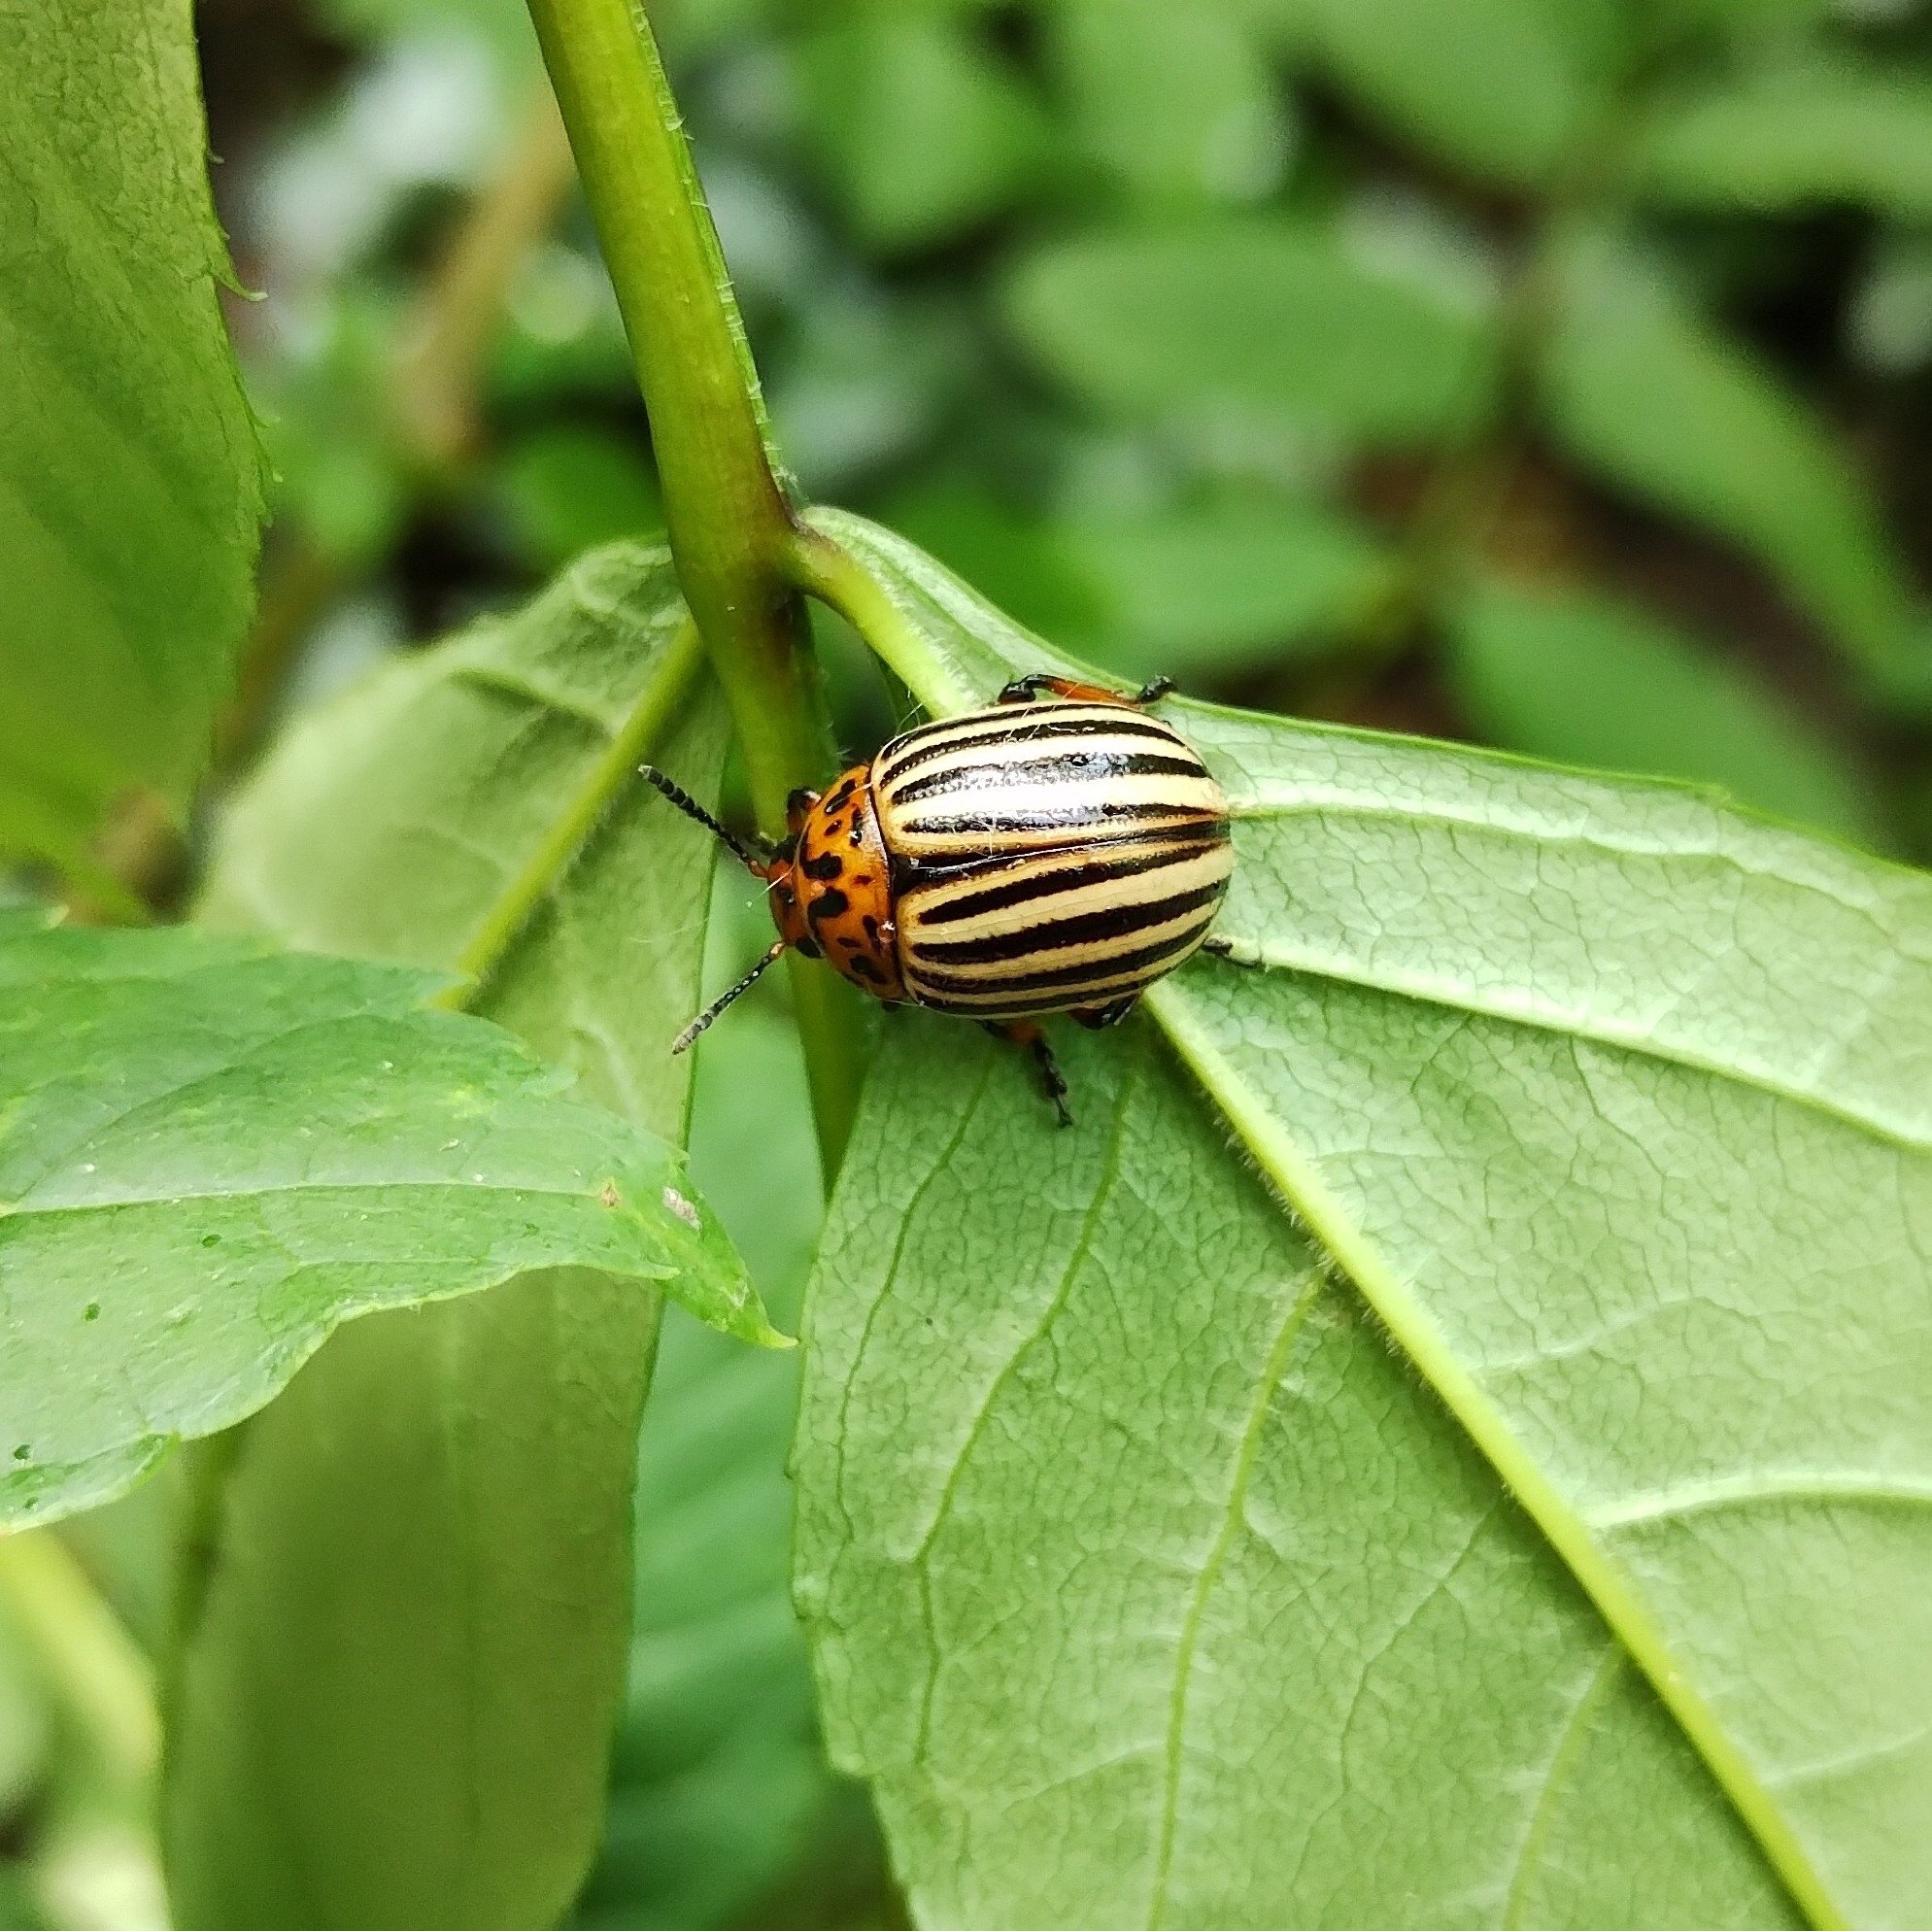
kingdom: Animalia
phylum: Arthropoda
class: Insecta
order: Coleoptera
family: Chrysomelidae
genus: Leptinotarsa
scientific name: Leptinotarsa decemlineata
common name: Colorado potato beetle
